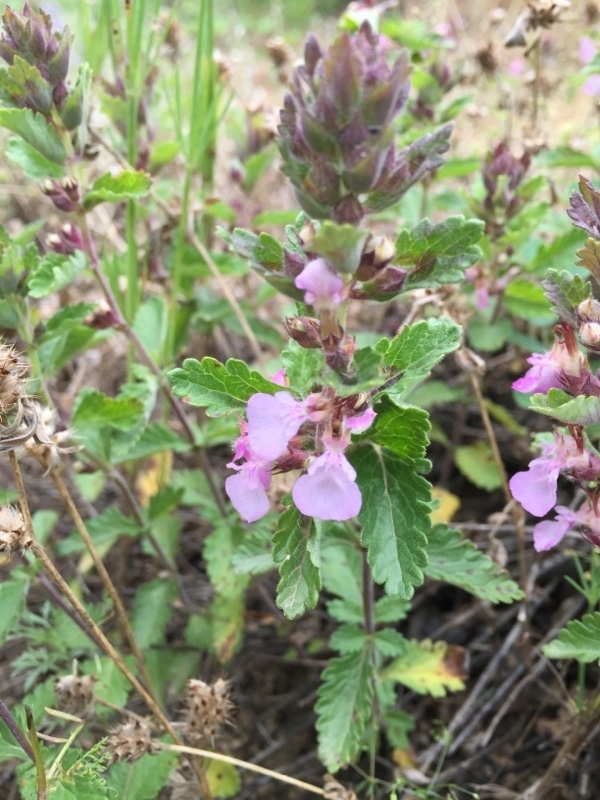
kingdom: Plantae
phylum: Tracheophyta
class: Magnoliopsida
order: Lamiales
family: Lamiaceae
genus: Teucrium
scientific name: Teucrium chamaedrys
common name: Wall germander
